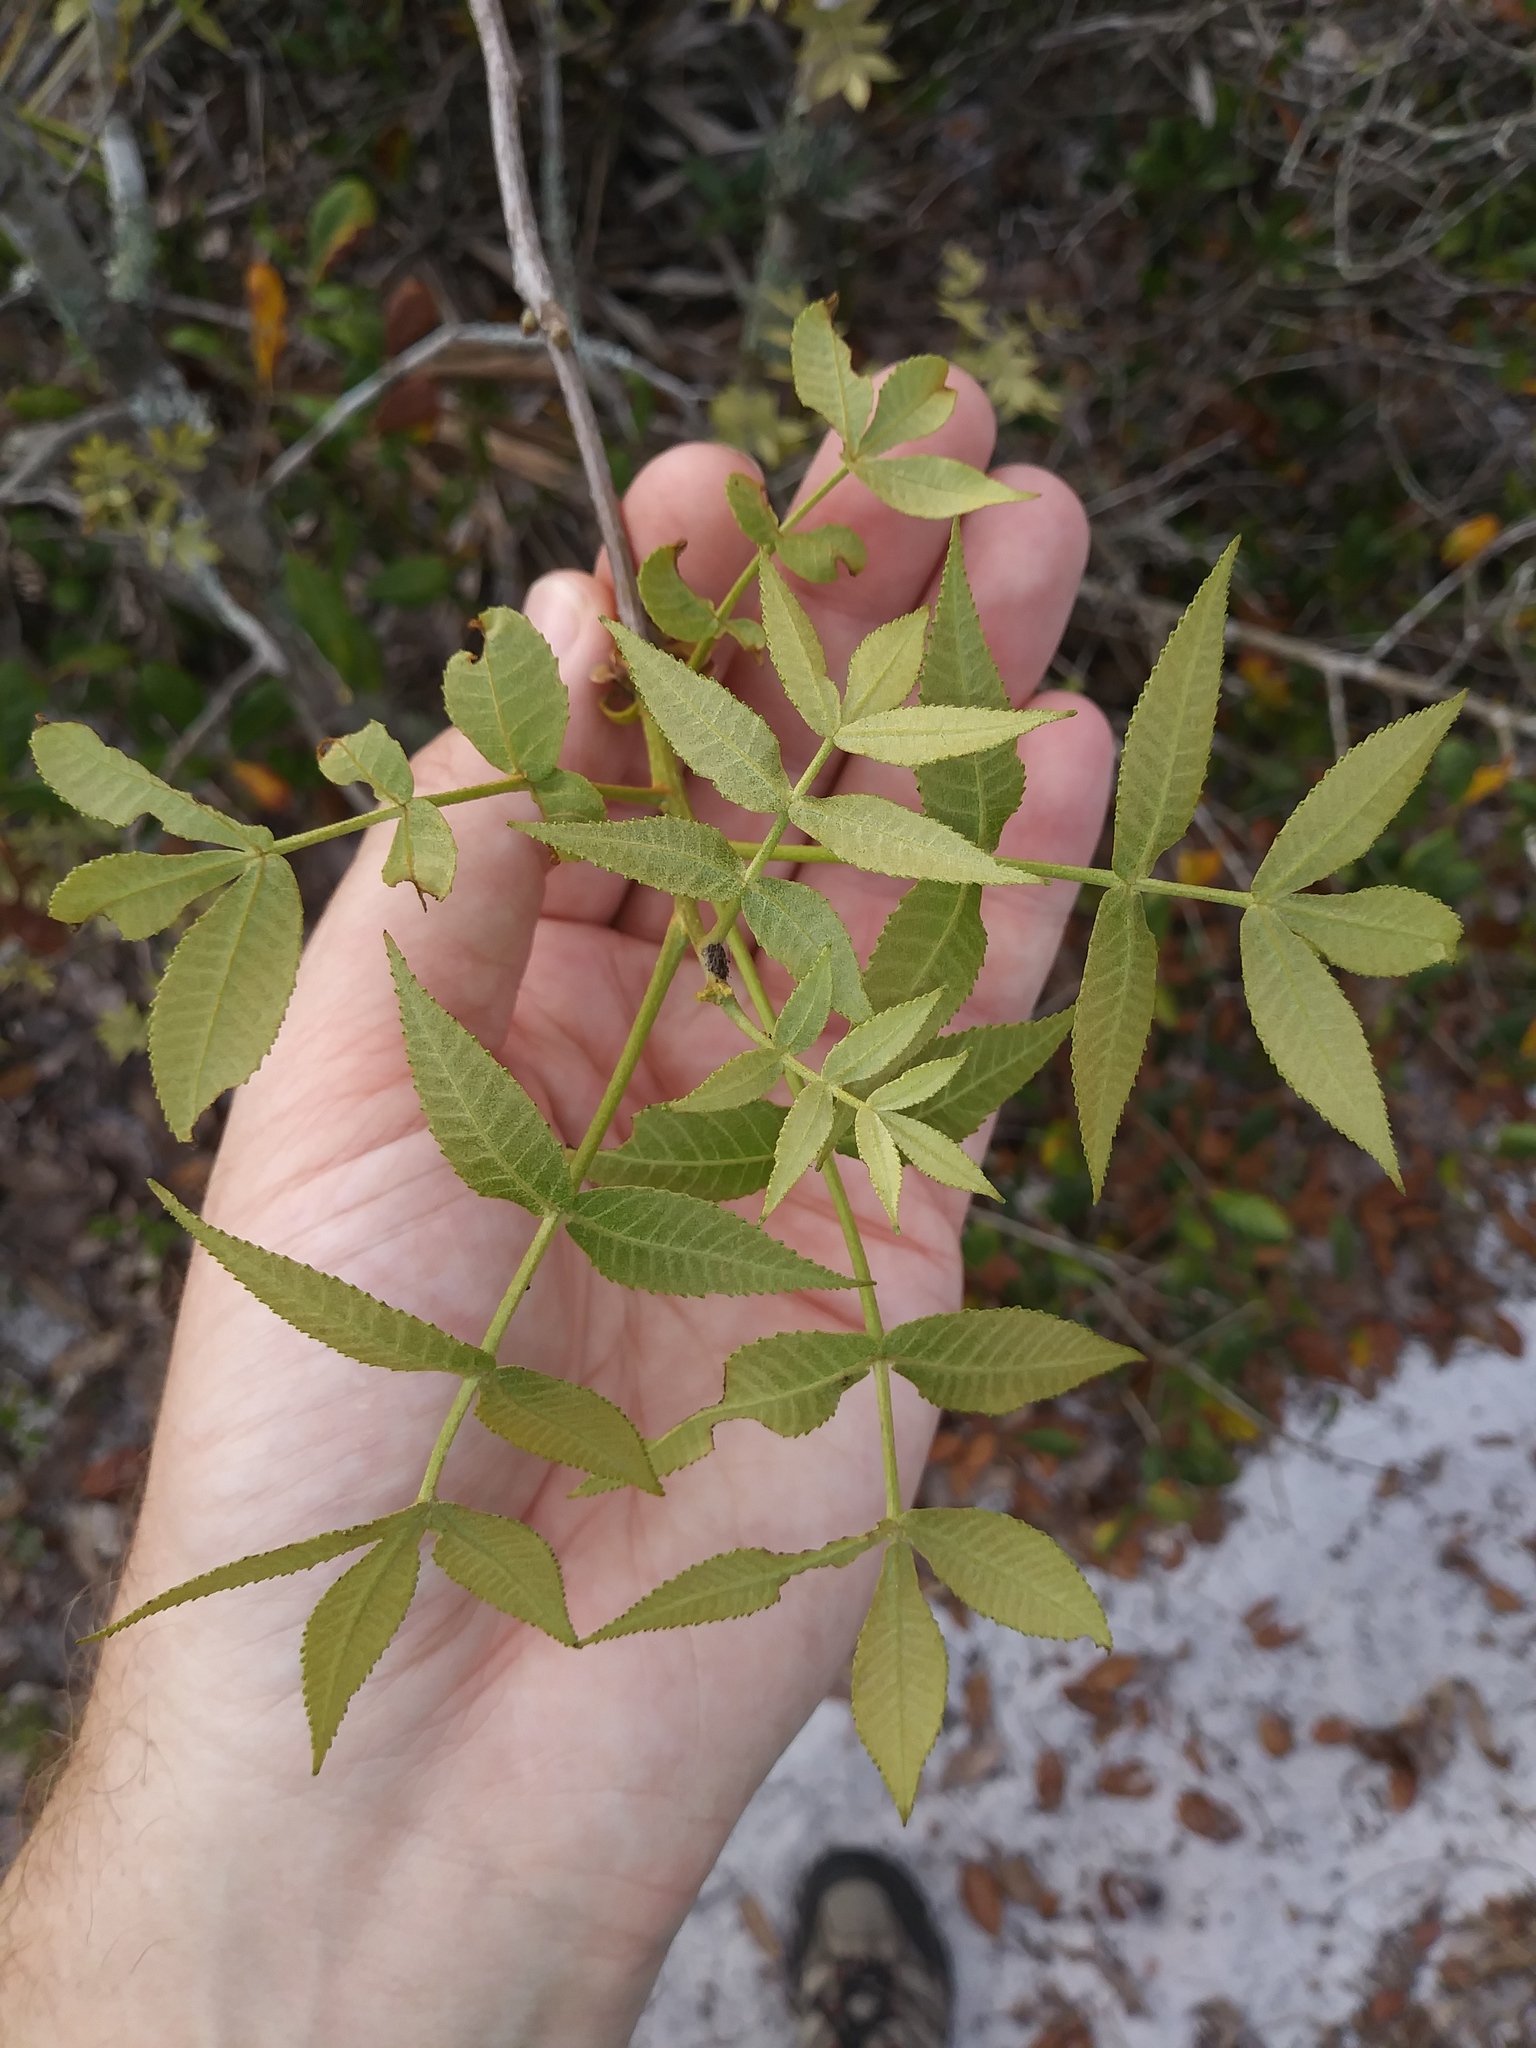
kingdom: Plantae
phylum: Tracheophyta
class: Magnoliopsida
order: Fagales
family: Juglandaceae
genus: Carya
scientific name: Carya floridana
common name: Scrub hickory
